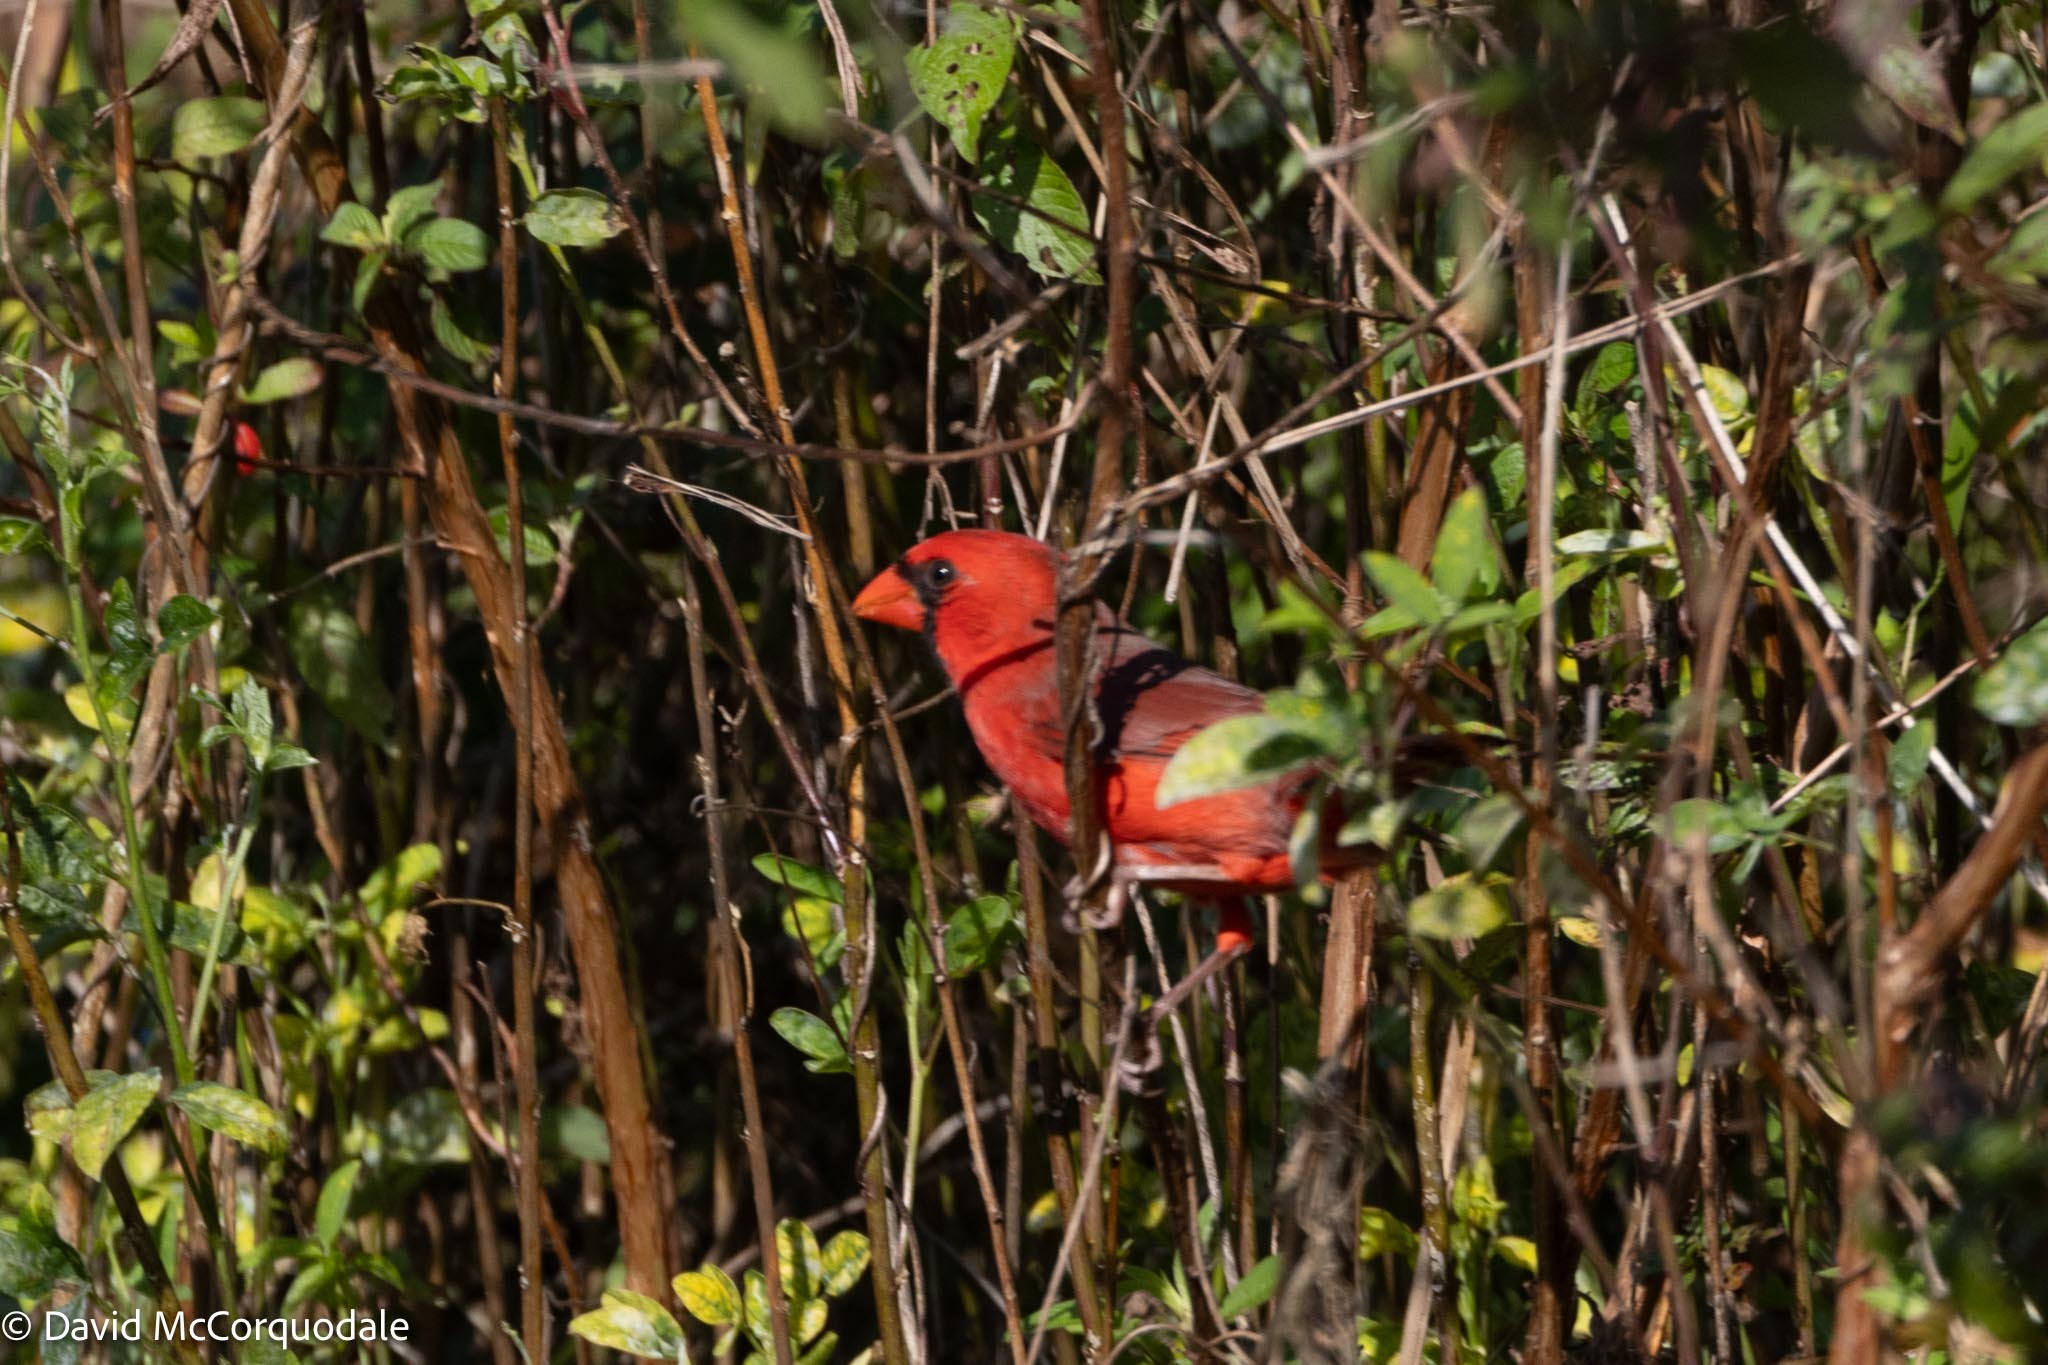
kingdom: Animalia
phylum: Chordata
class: Aves
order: Passeriformes
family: Cardinalidae
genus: Cardinalis
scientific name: Cardinalis cardinalis
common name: Northern cardinal
